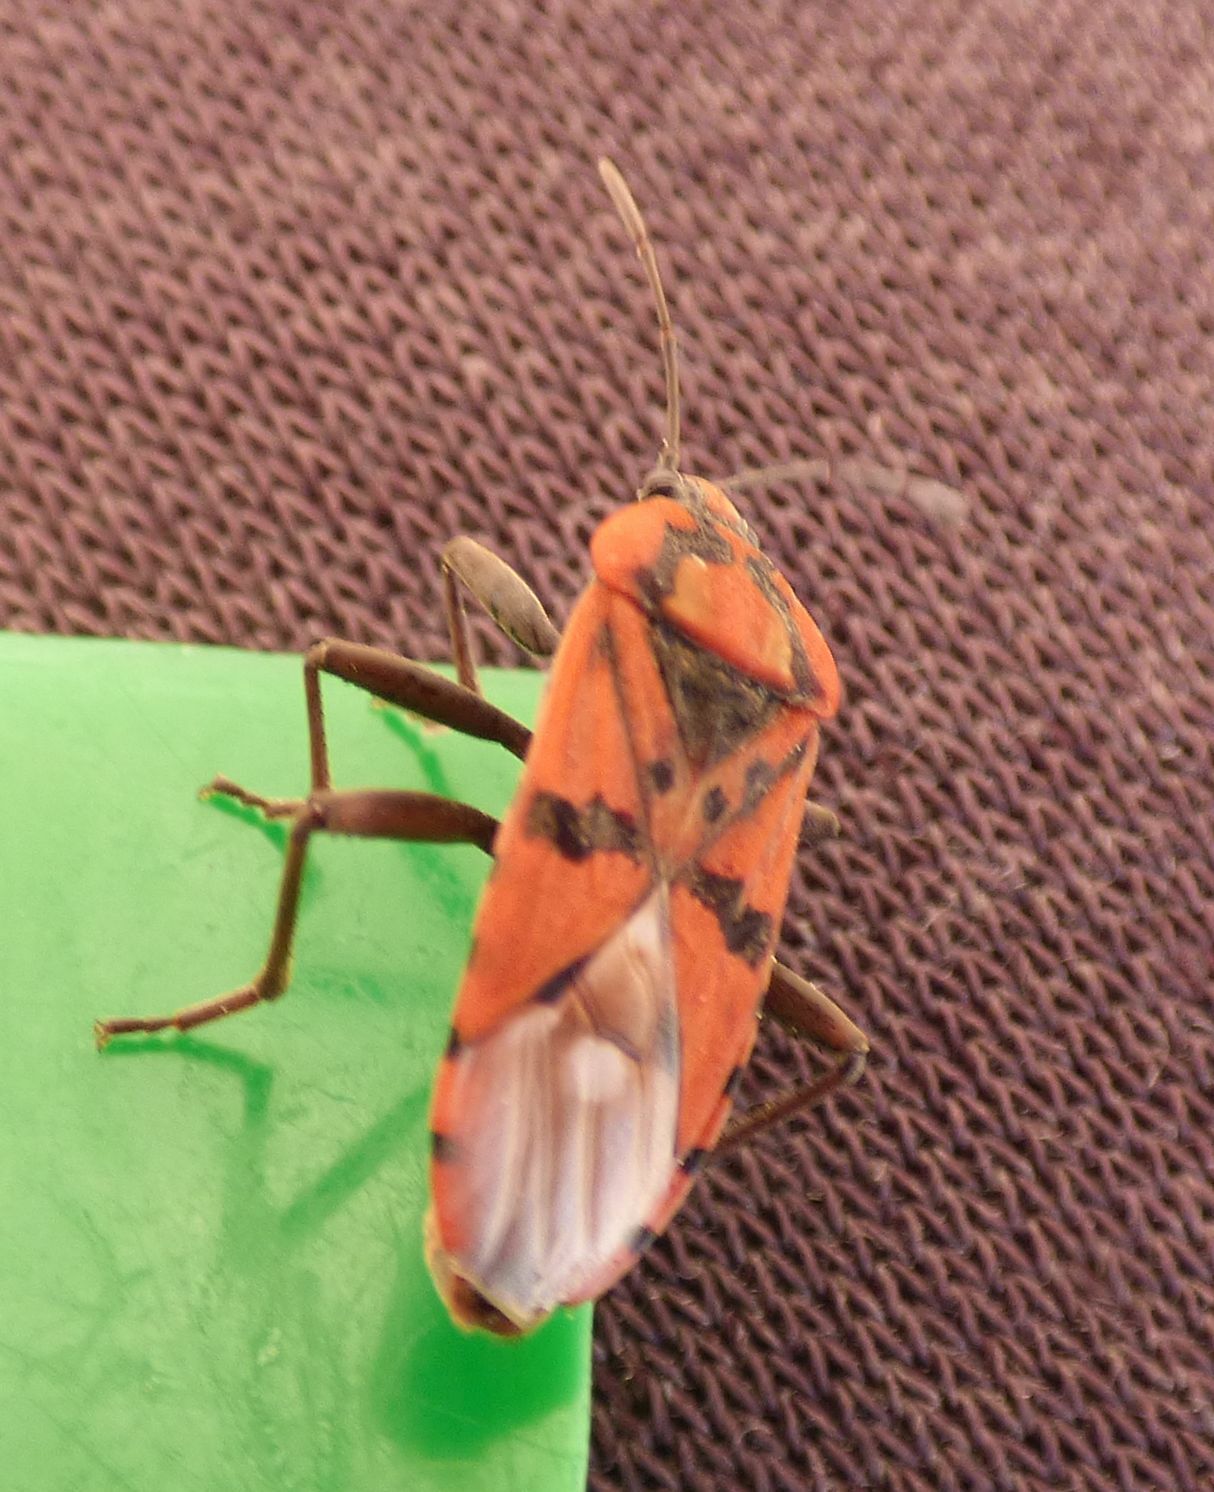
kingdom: Animalia
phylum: Arthropoda
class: Insecta
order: Hemiptera
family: Lygaeidae
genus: Spilostethus
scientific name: Spilostethus pandurus
